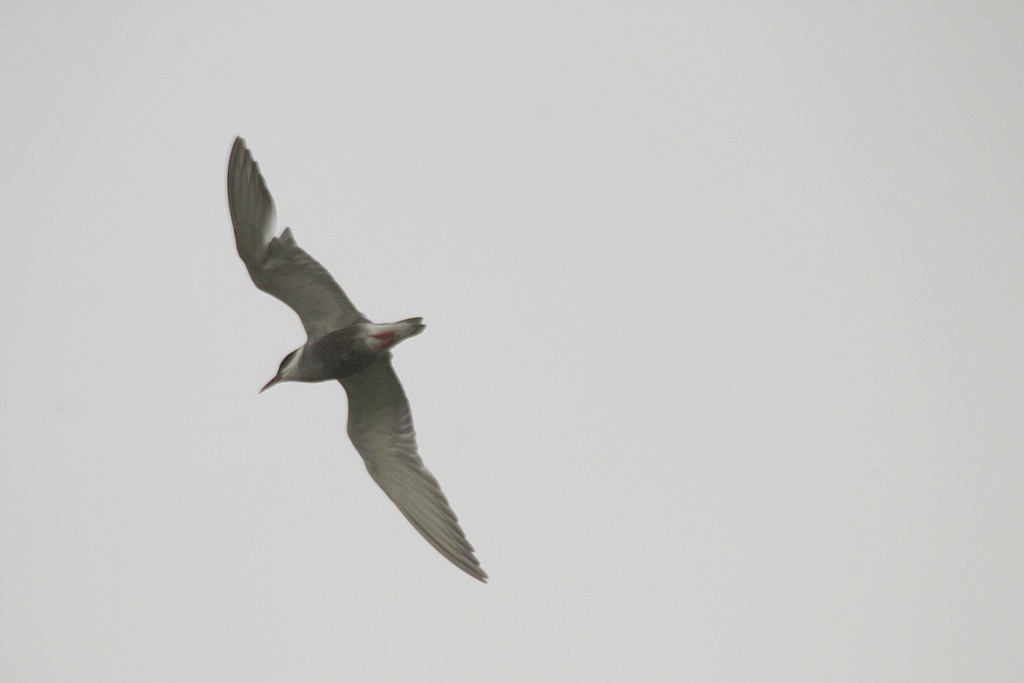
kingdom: Animalia
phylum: Chordata
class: Aves
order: Charadriiformes
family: Laridae
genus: Chlidonias
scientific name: Chlidonias hybrida
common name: Whiskered tern
